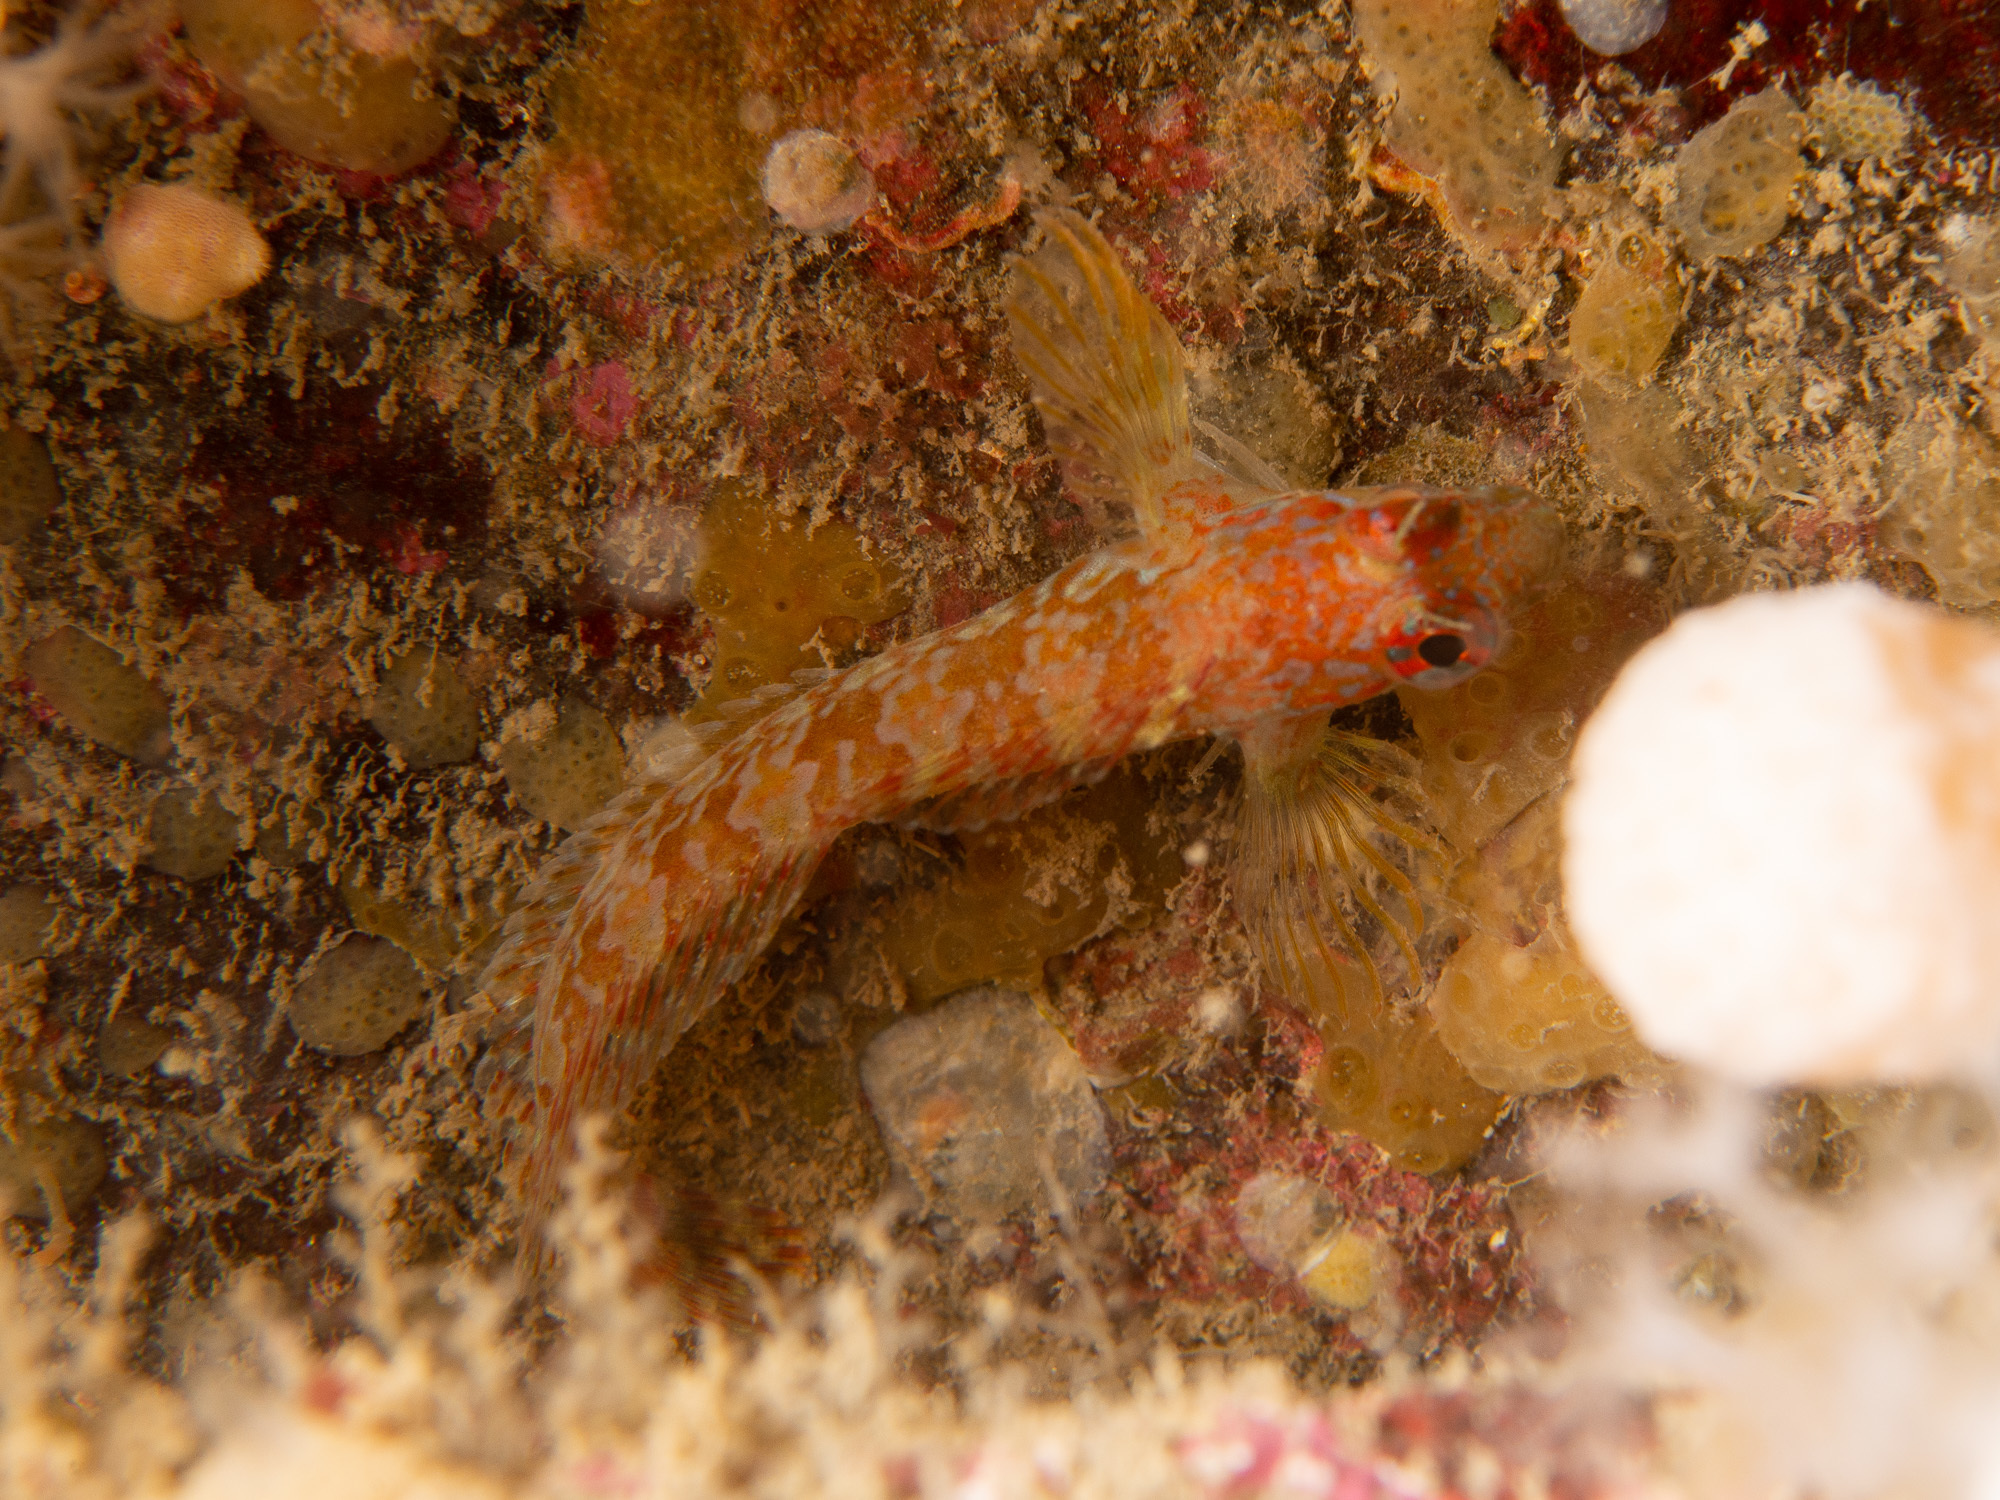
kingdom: Animalia
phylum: Chordata
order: Perciformes
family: Blenniidae
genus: Parablennius
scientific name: Parablennius ruber
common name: Portuguese blenny
